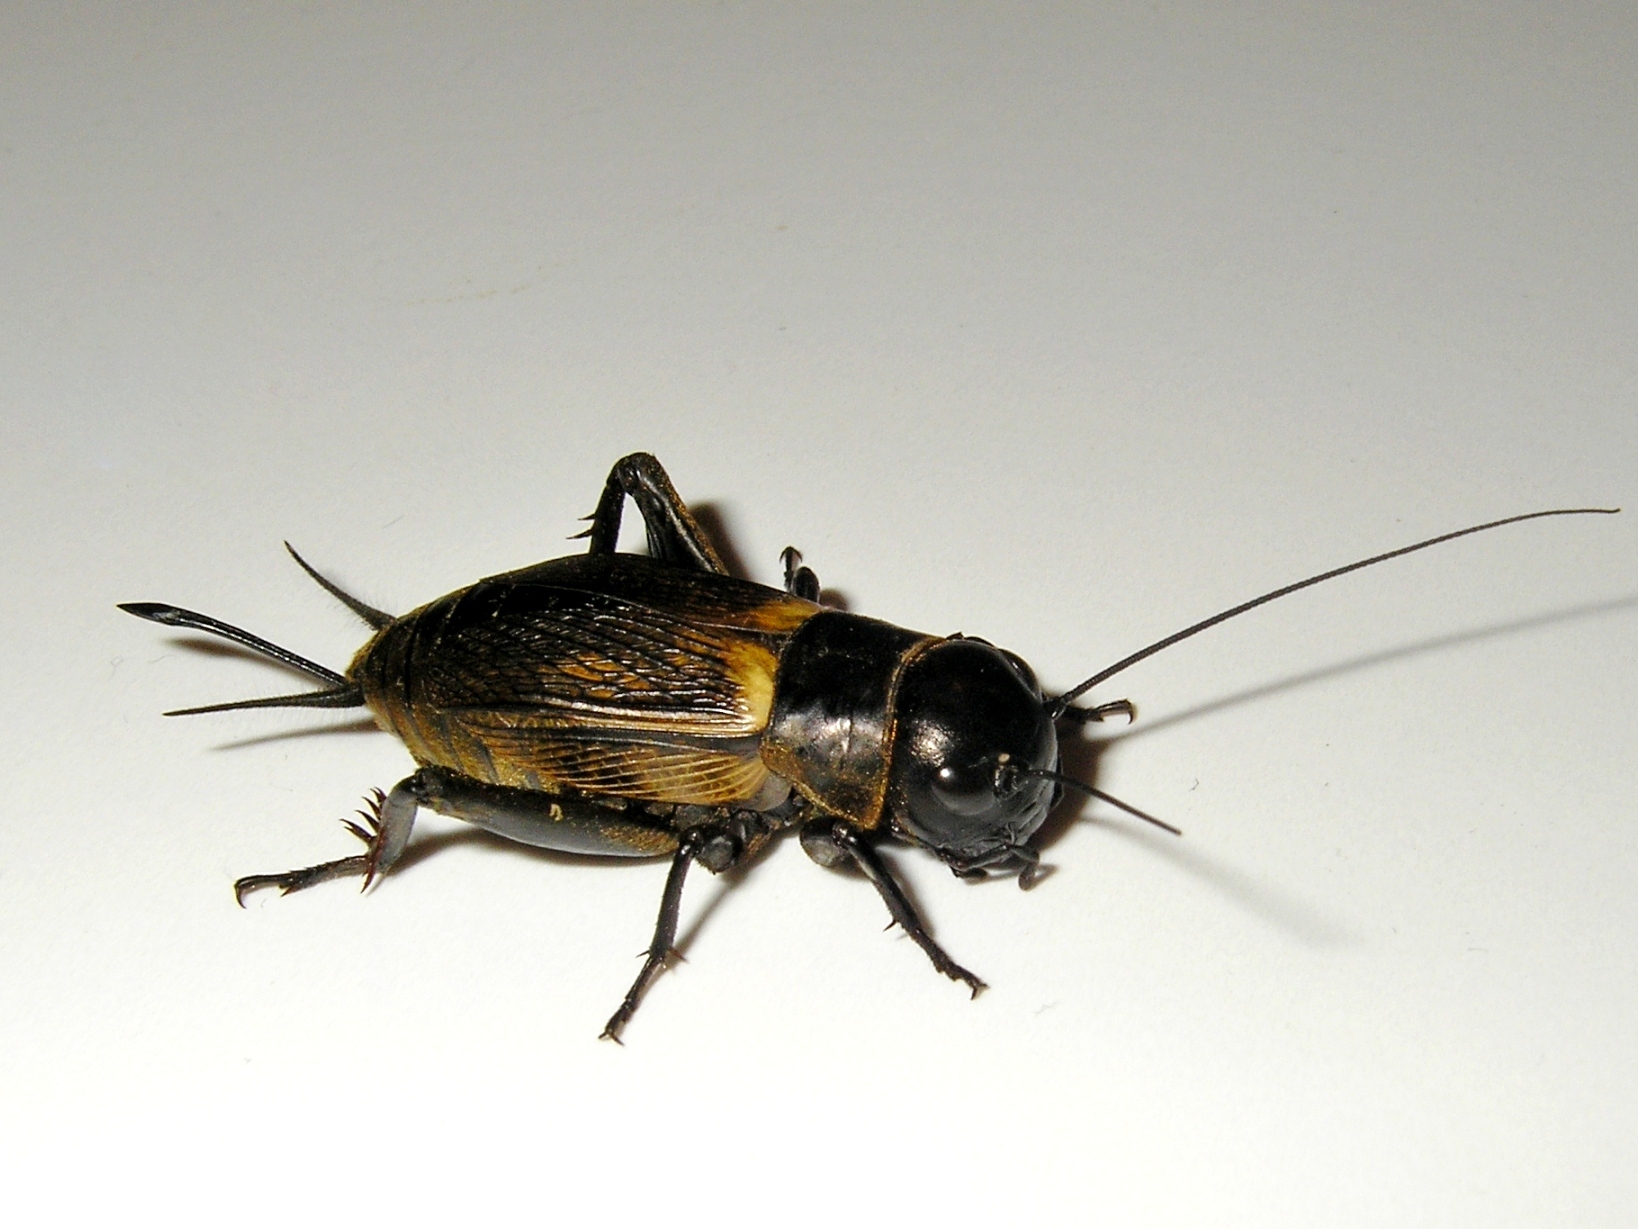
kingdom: Animalia
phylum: Arthropoda
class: Insecta
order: Orthoptera
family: Gryllidae
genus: Gryllus
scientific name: Gryllus campestris
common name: Field cricket
